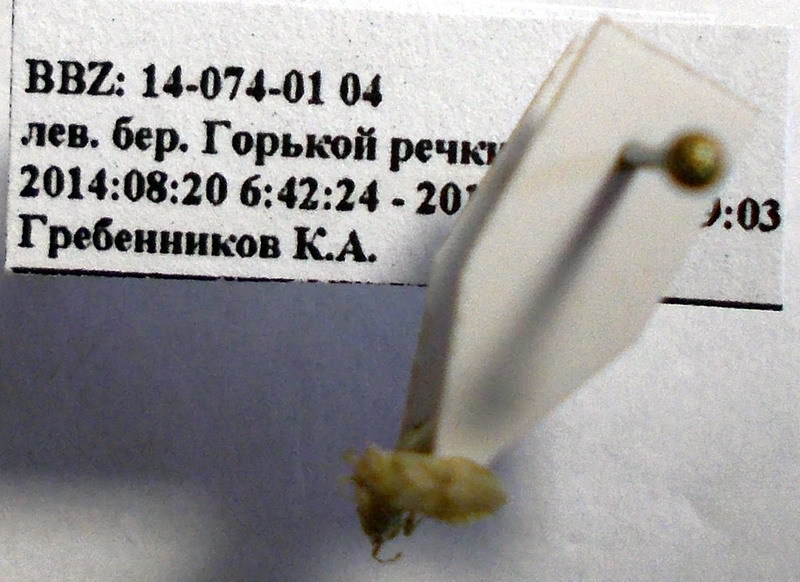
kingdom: Animalia
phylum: Arthropoda
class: Insecta
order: Hemiptera
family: Geocoridae
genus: Engistus
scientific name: Engistus salinus
